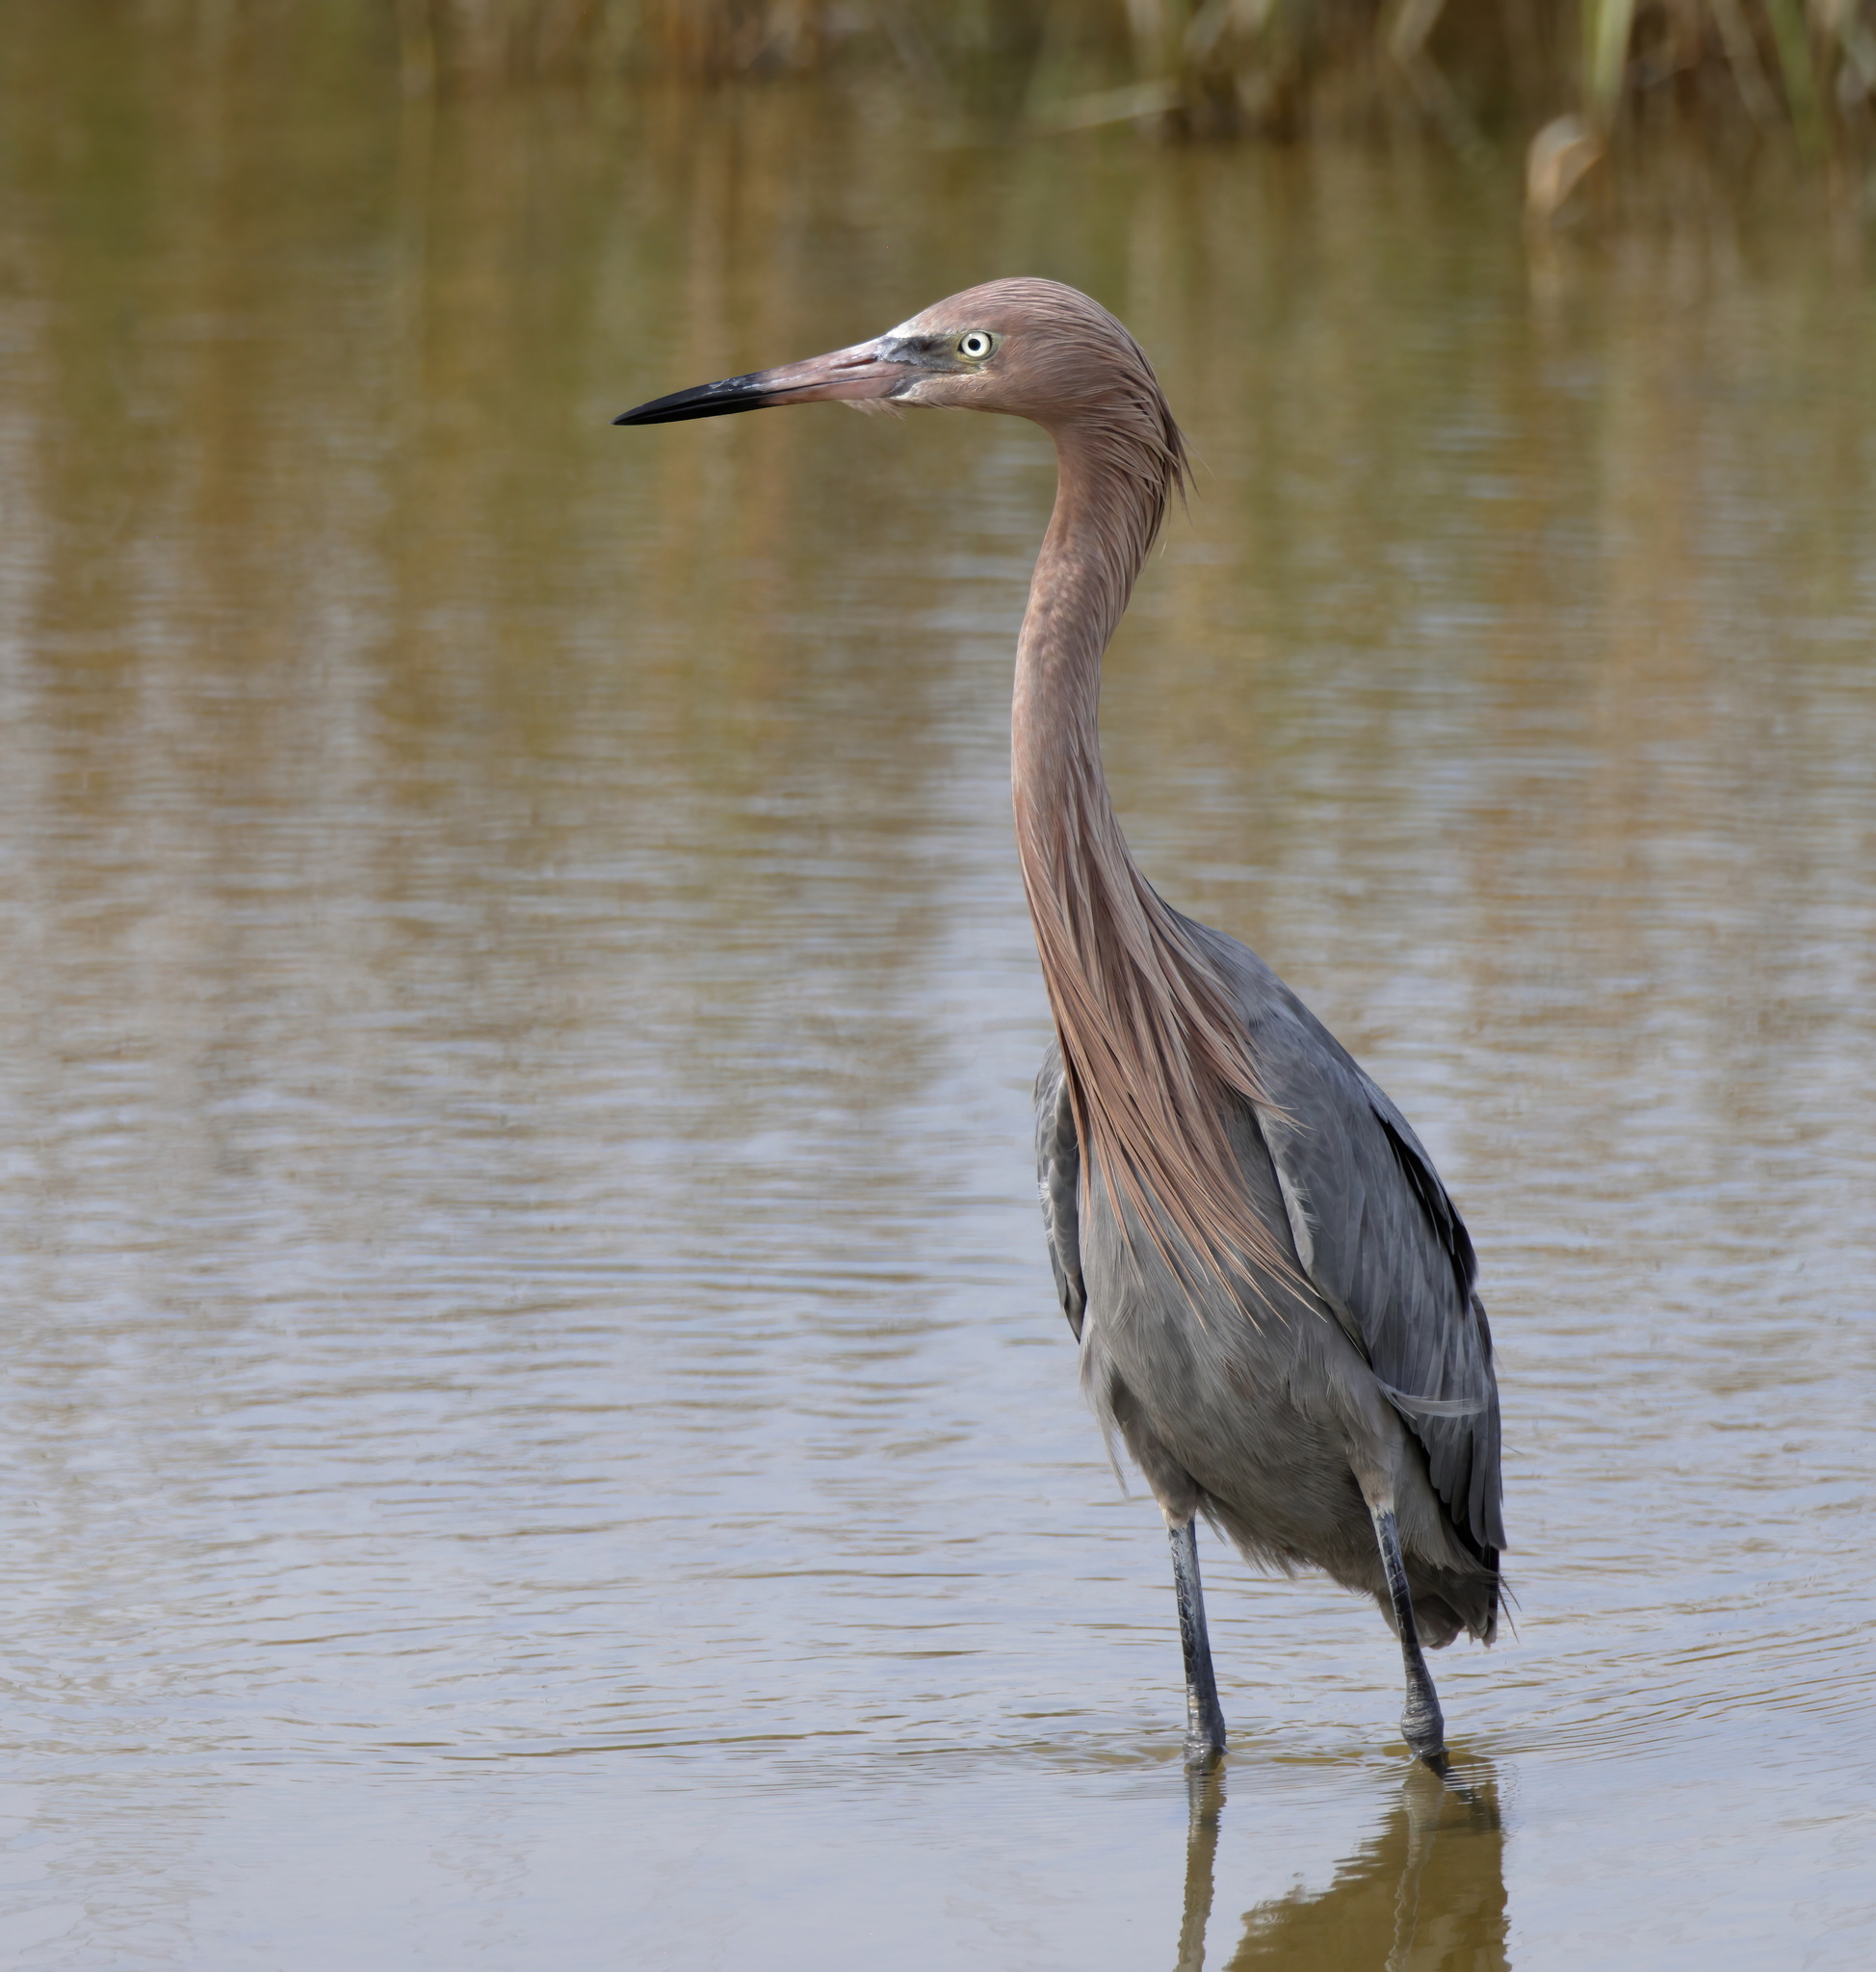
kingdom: Animalia
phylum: Chordata
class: Aves
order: Pelecaniformes
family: Ardeidae
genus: Egretta
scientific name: Egretta rufescens
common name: Reddish egret
